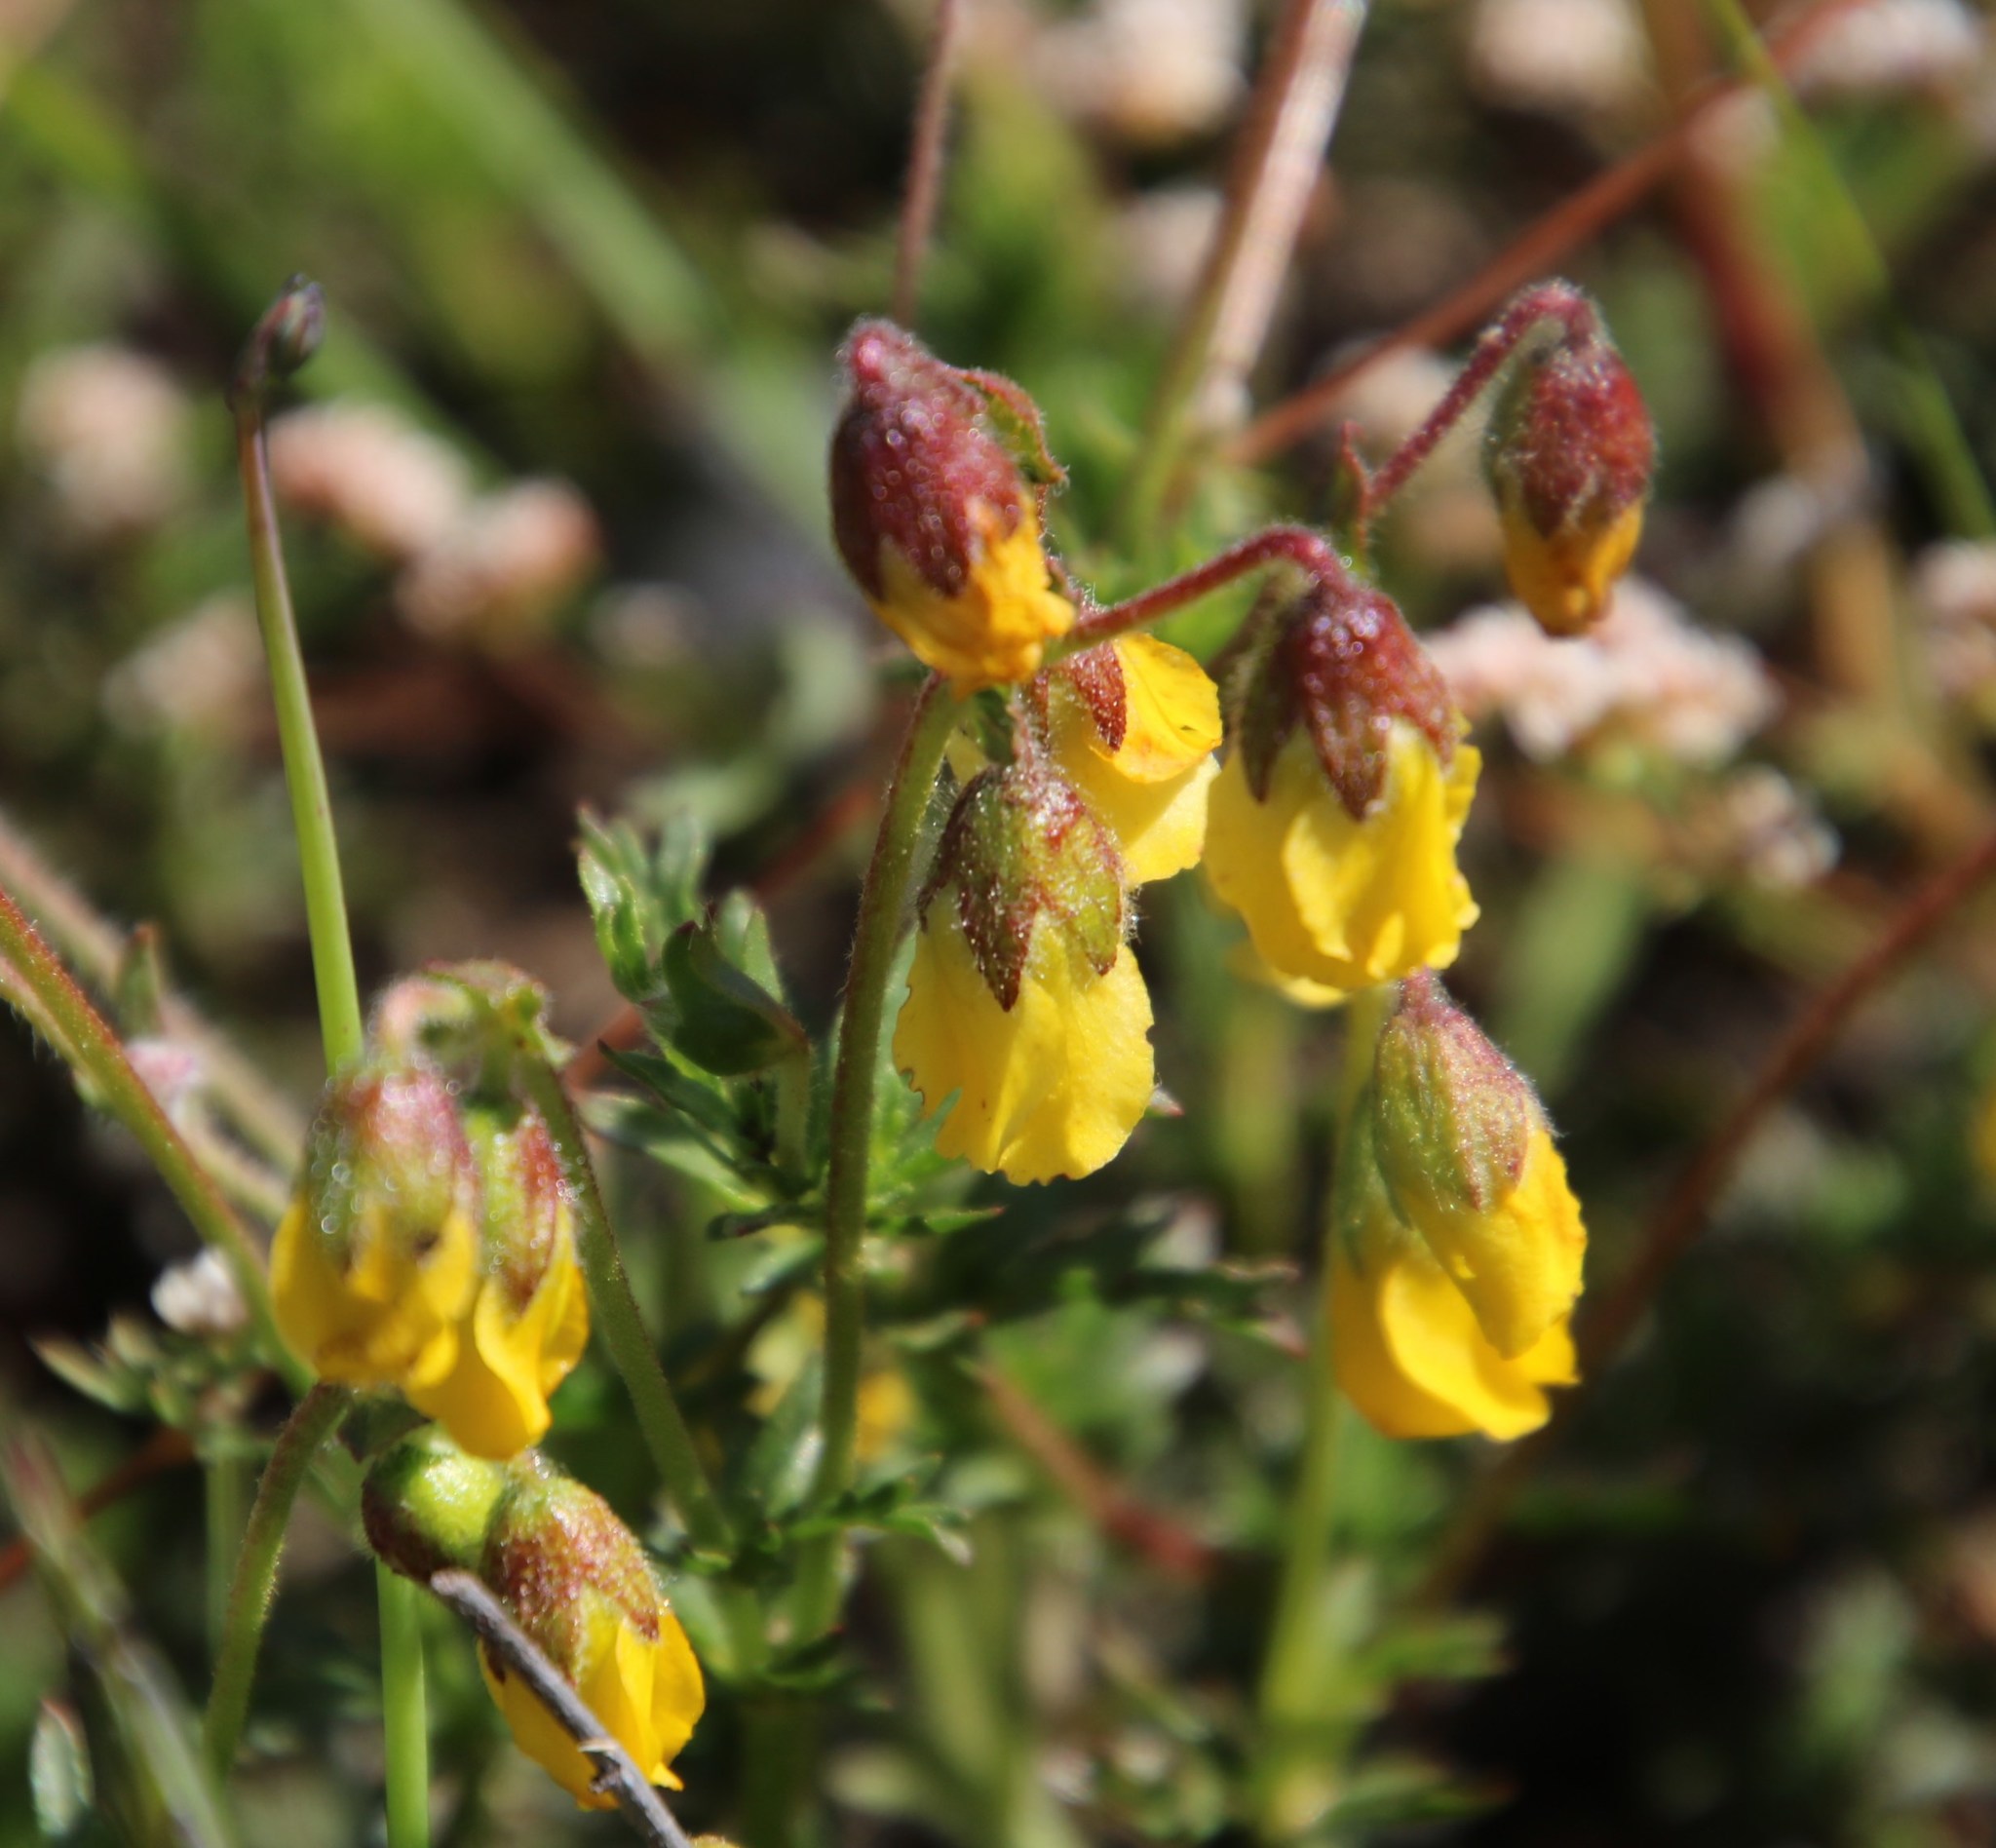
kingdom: Plantae
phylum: Tracheophyta
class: Magnoliopsida
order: Malvales
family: Malvaceae
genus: Hermannia
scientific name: Hermannia pinnata
